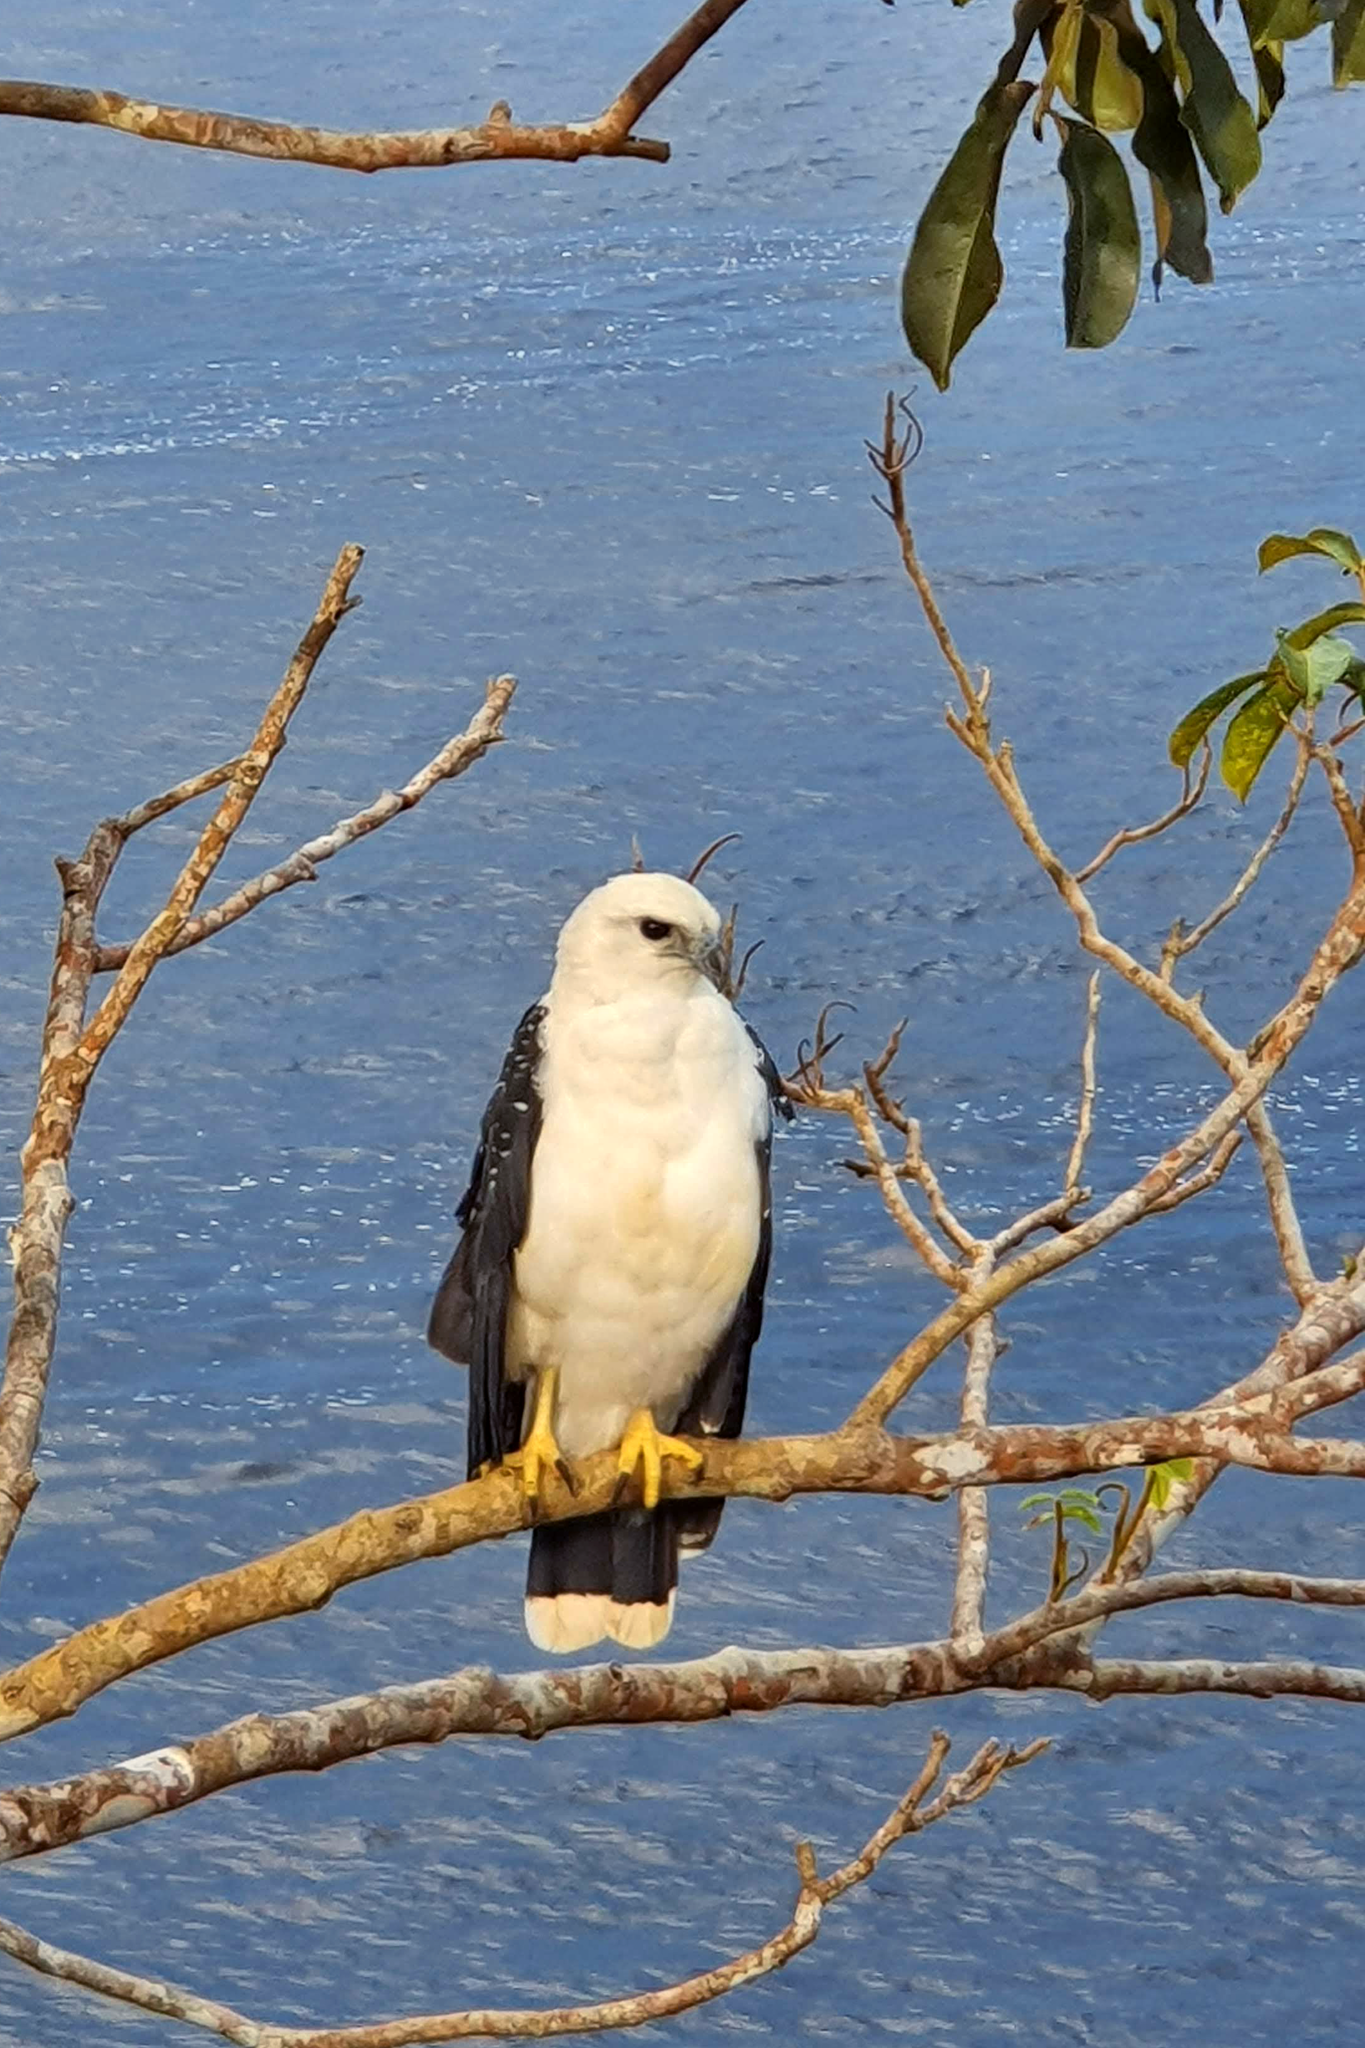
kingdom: Animalia
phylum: Chordata
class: Aves
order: Accipitriformes
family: Accipitridae
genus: Leucopternis
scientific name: Leucopternis albicollis
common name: White hawk
